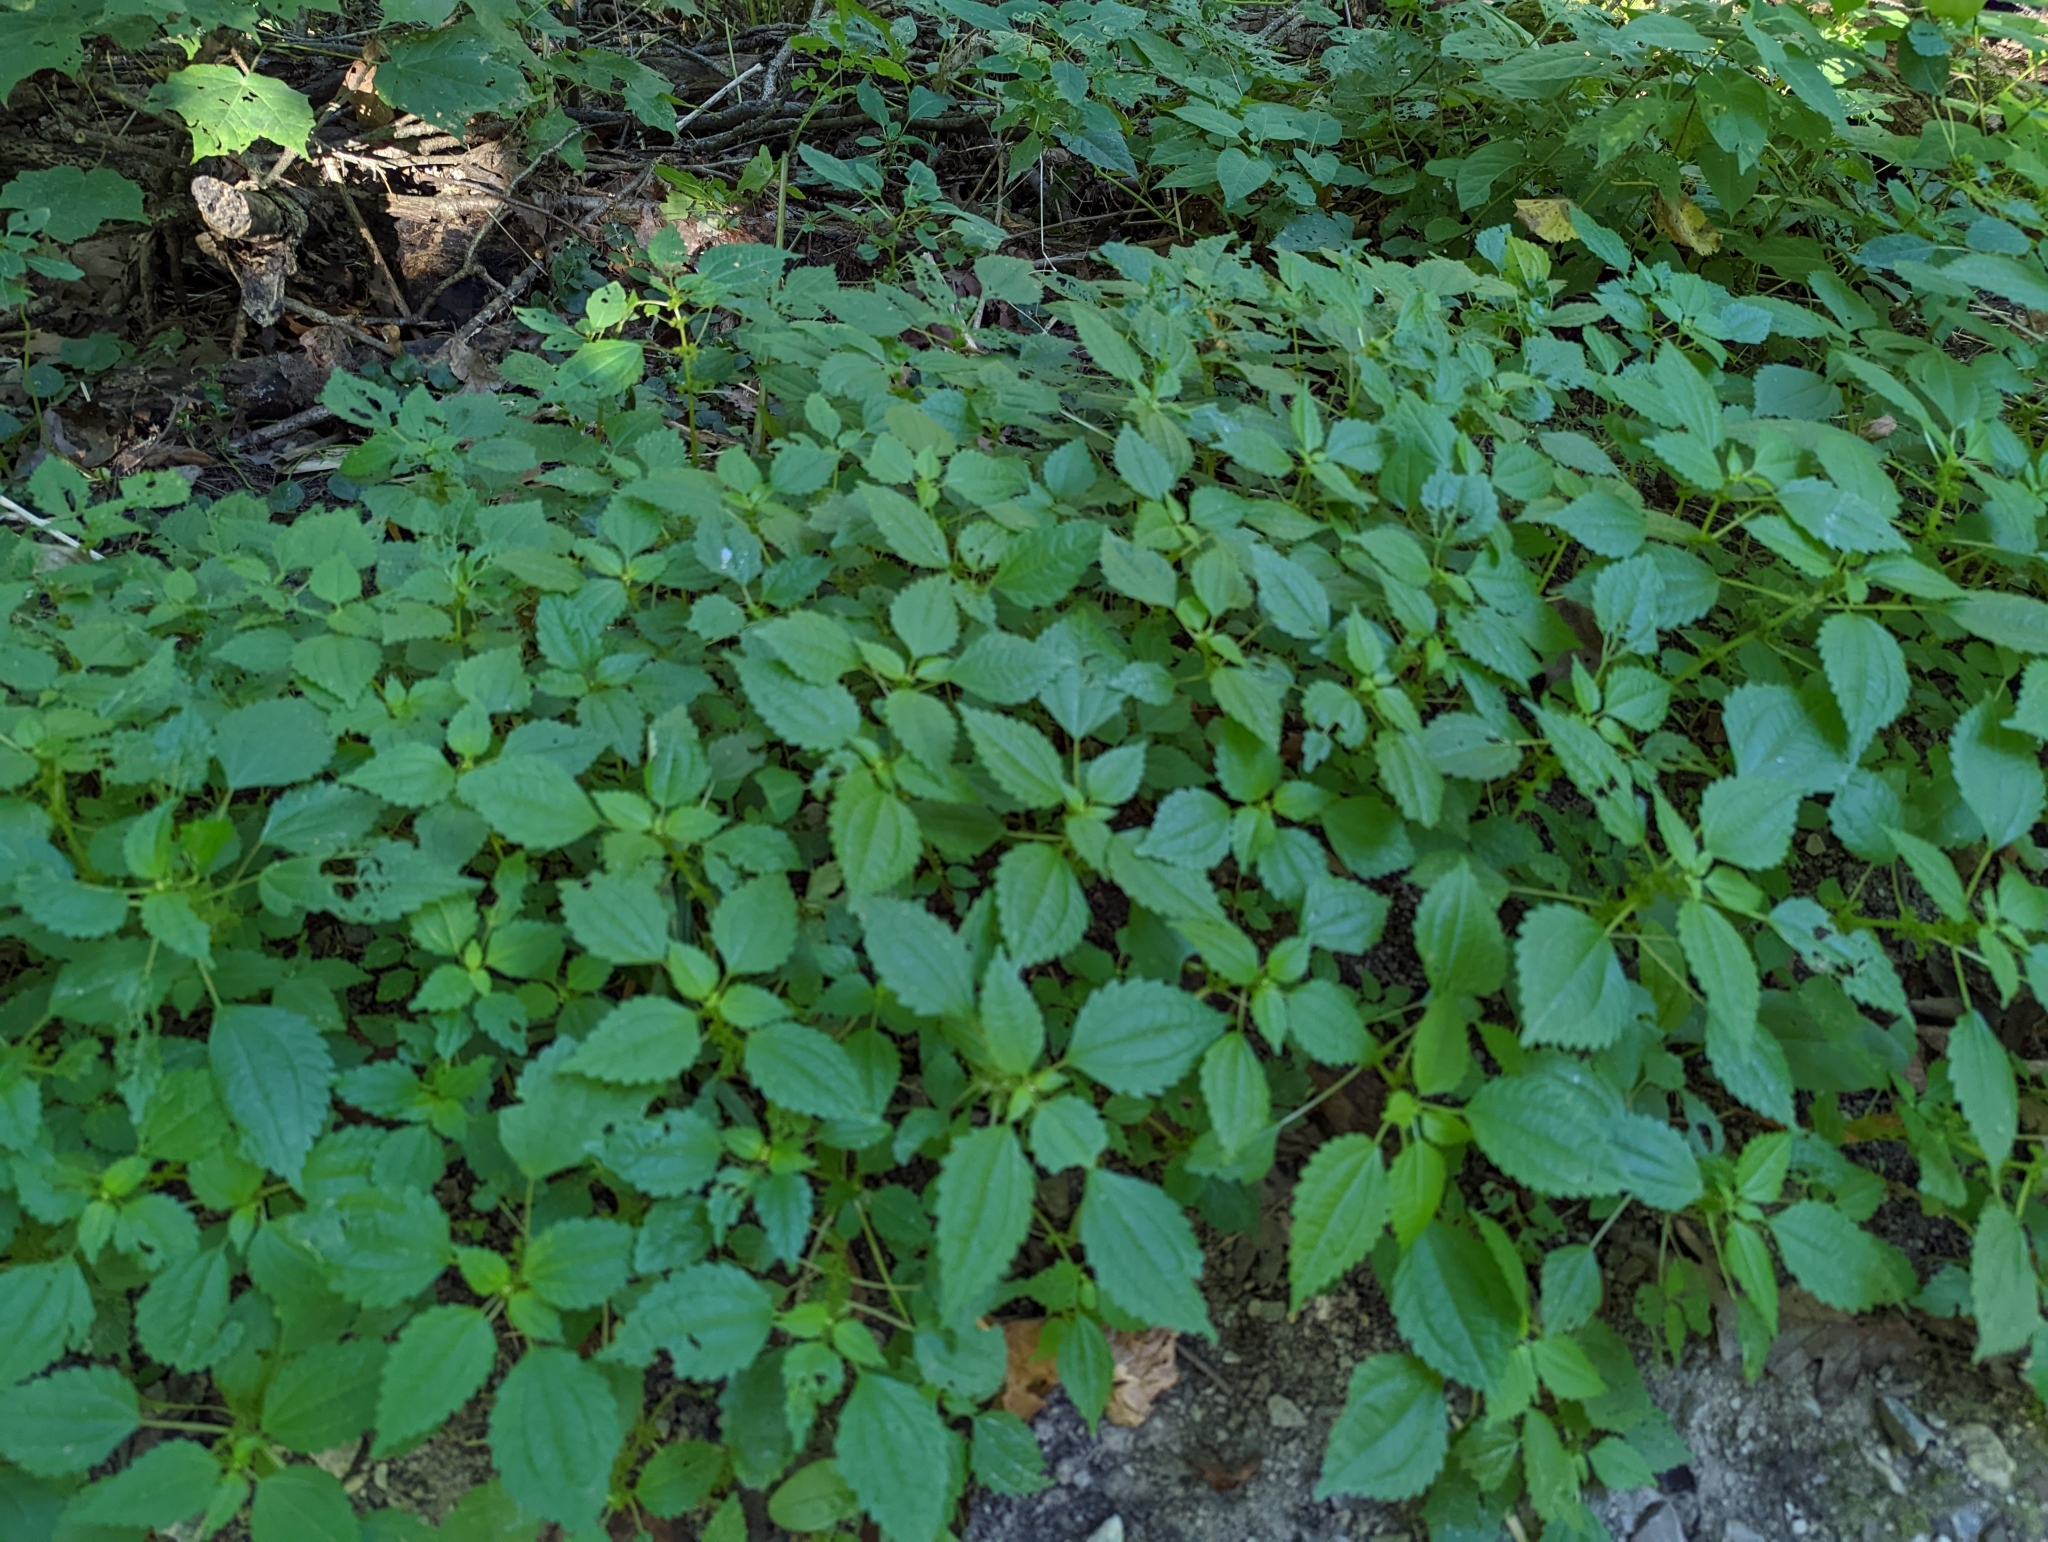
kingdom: Plantae
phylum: Tracheophyta
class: Magnoliopsida
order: Rosales
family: Urticaceae
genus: Pilea
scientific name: Pilea pumila
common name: Clearweed
